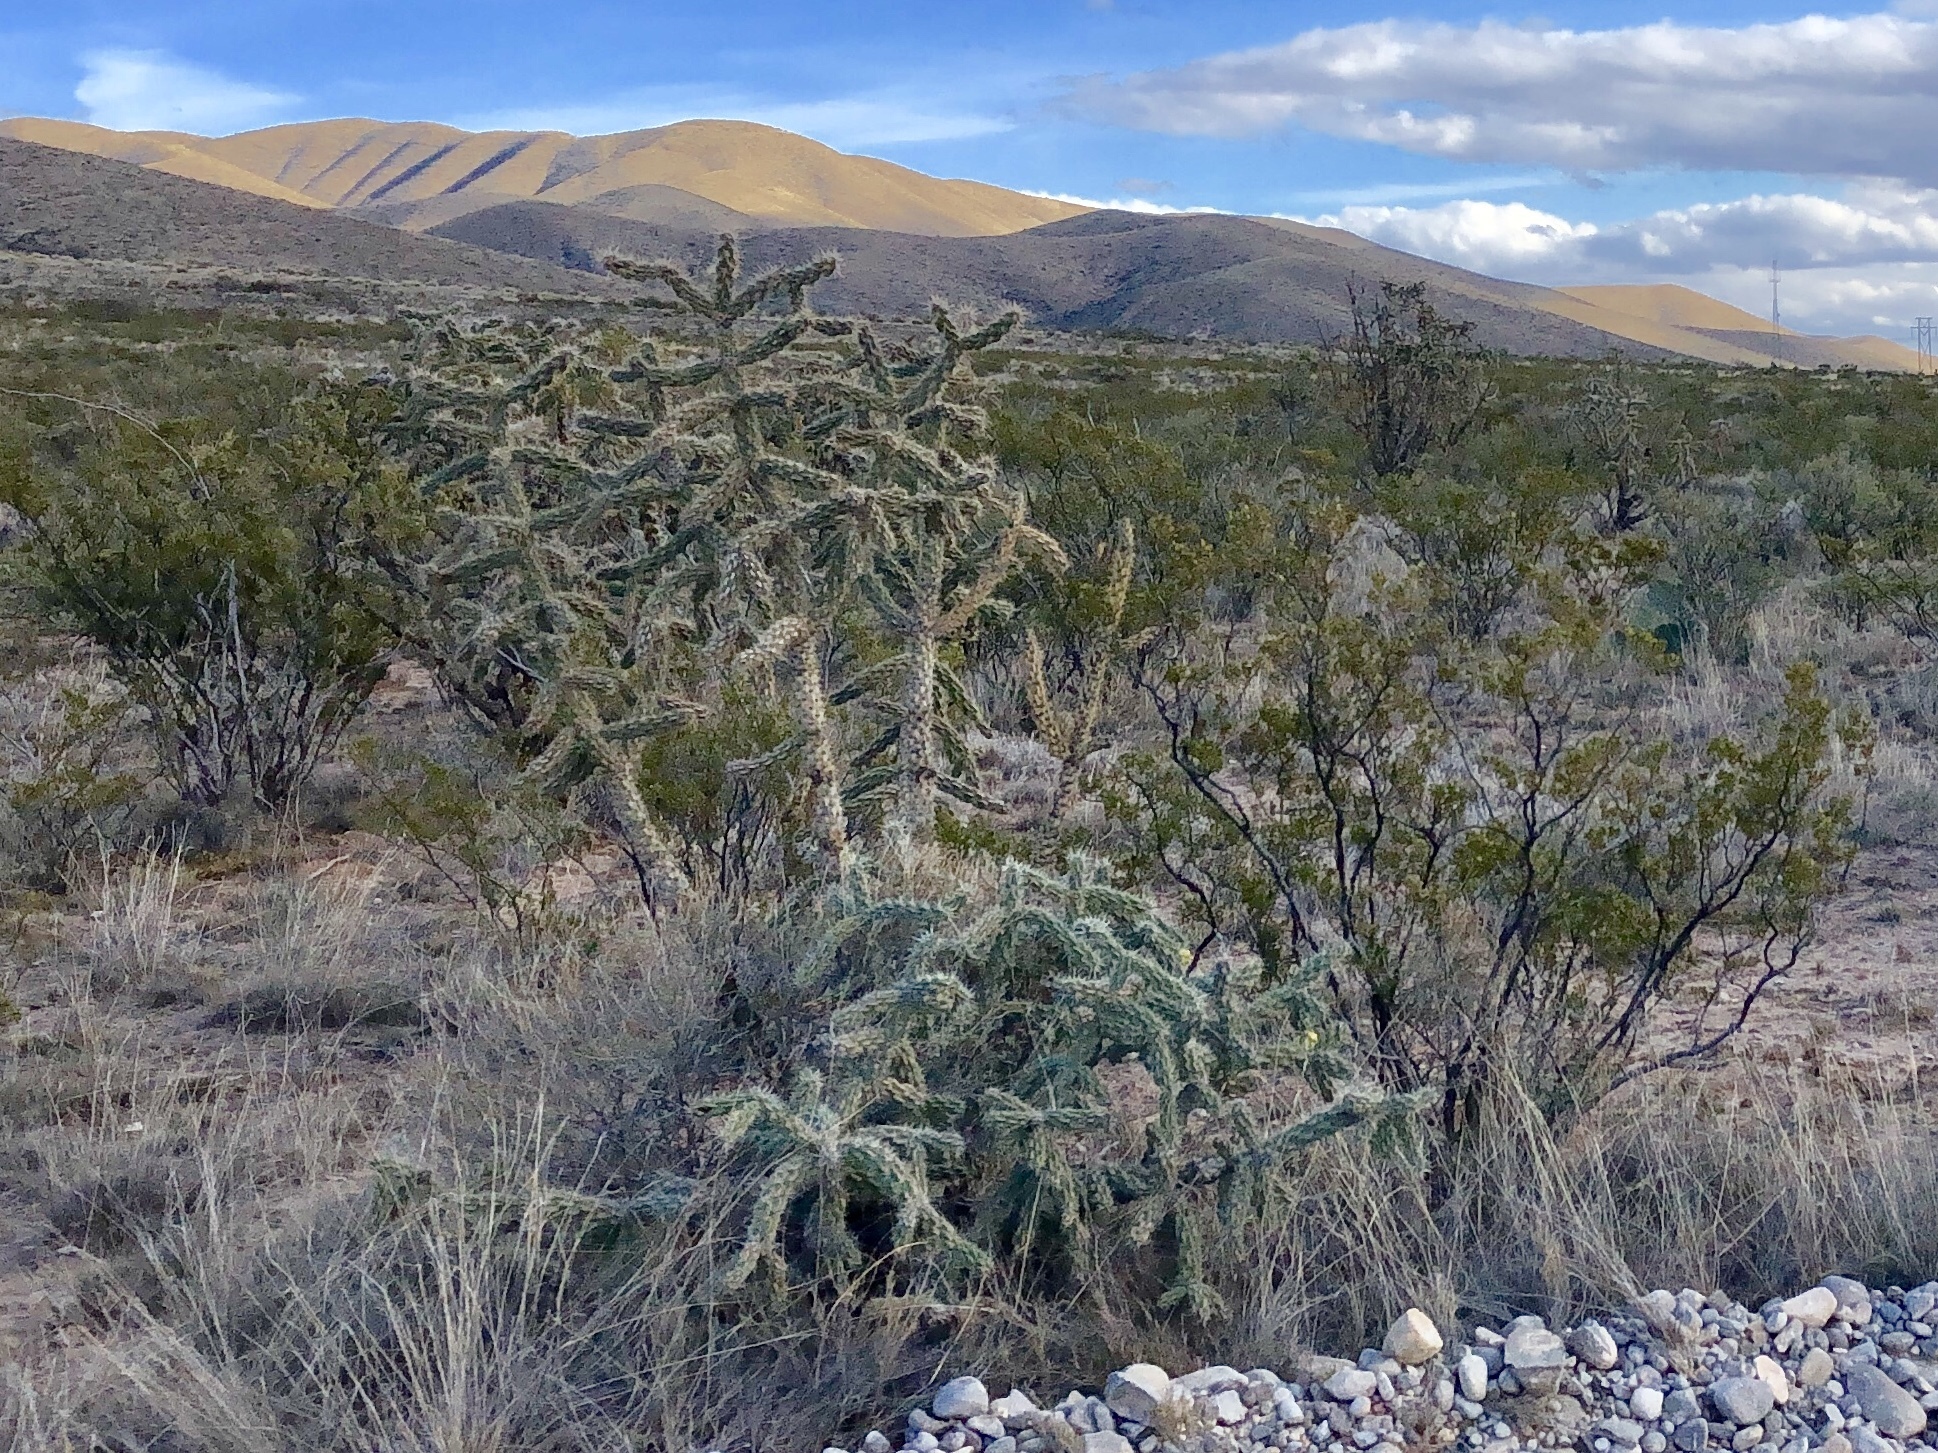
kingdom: Plantae
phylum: Tracheophyta
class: Magnoliopsida
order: Caryophyllales
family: Cactaceae
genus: Cylindropuntia
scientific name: Cylindropuntia imbricata
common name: Candelabrum cactus
